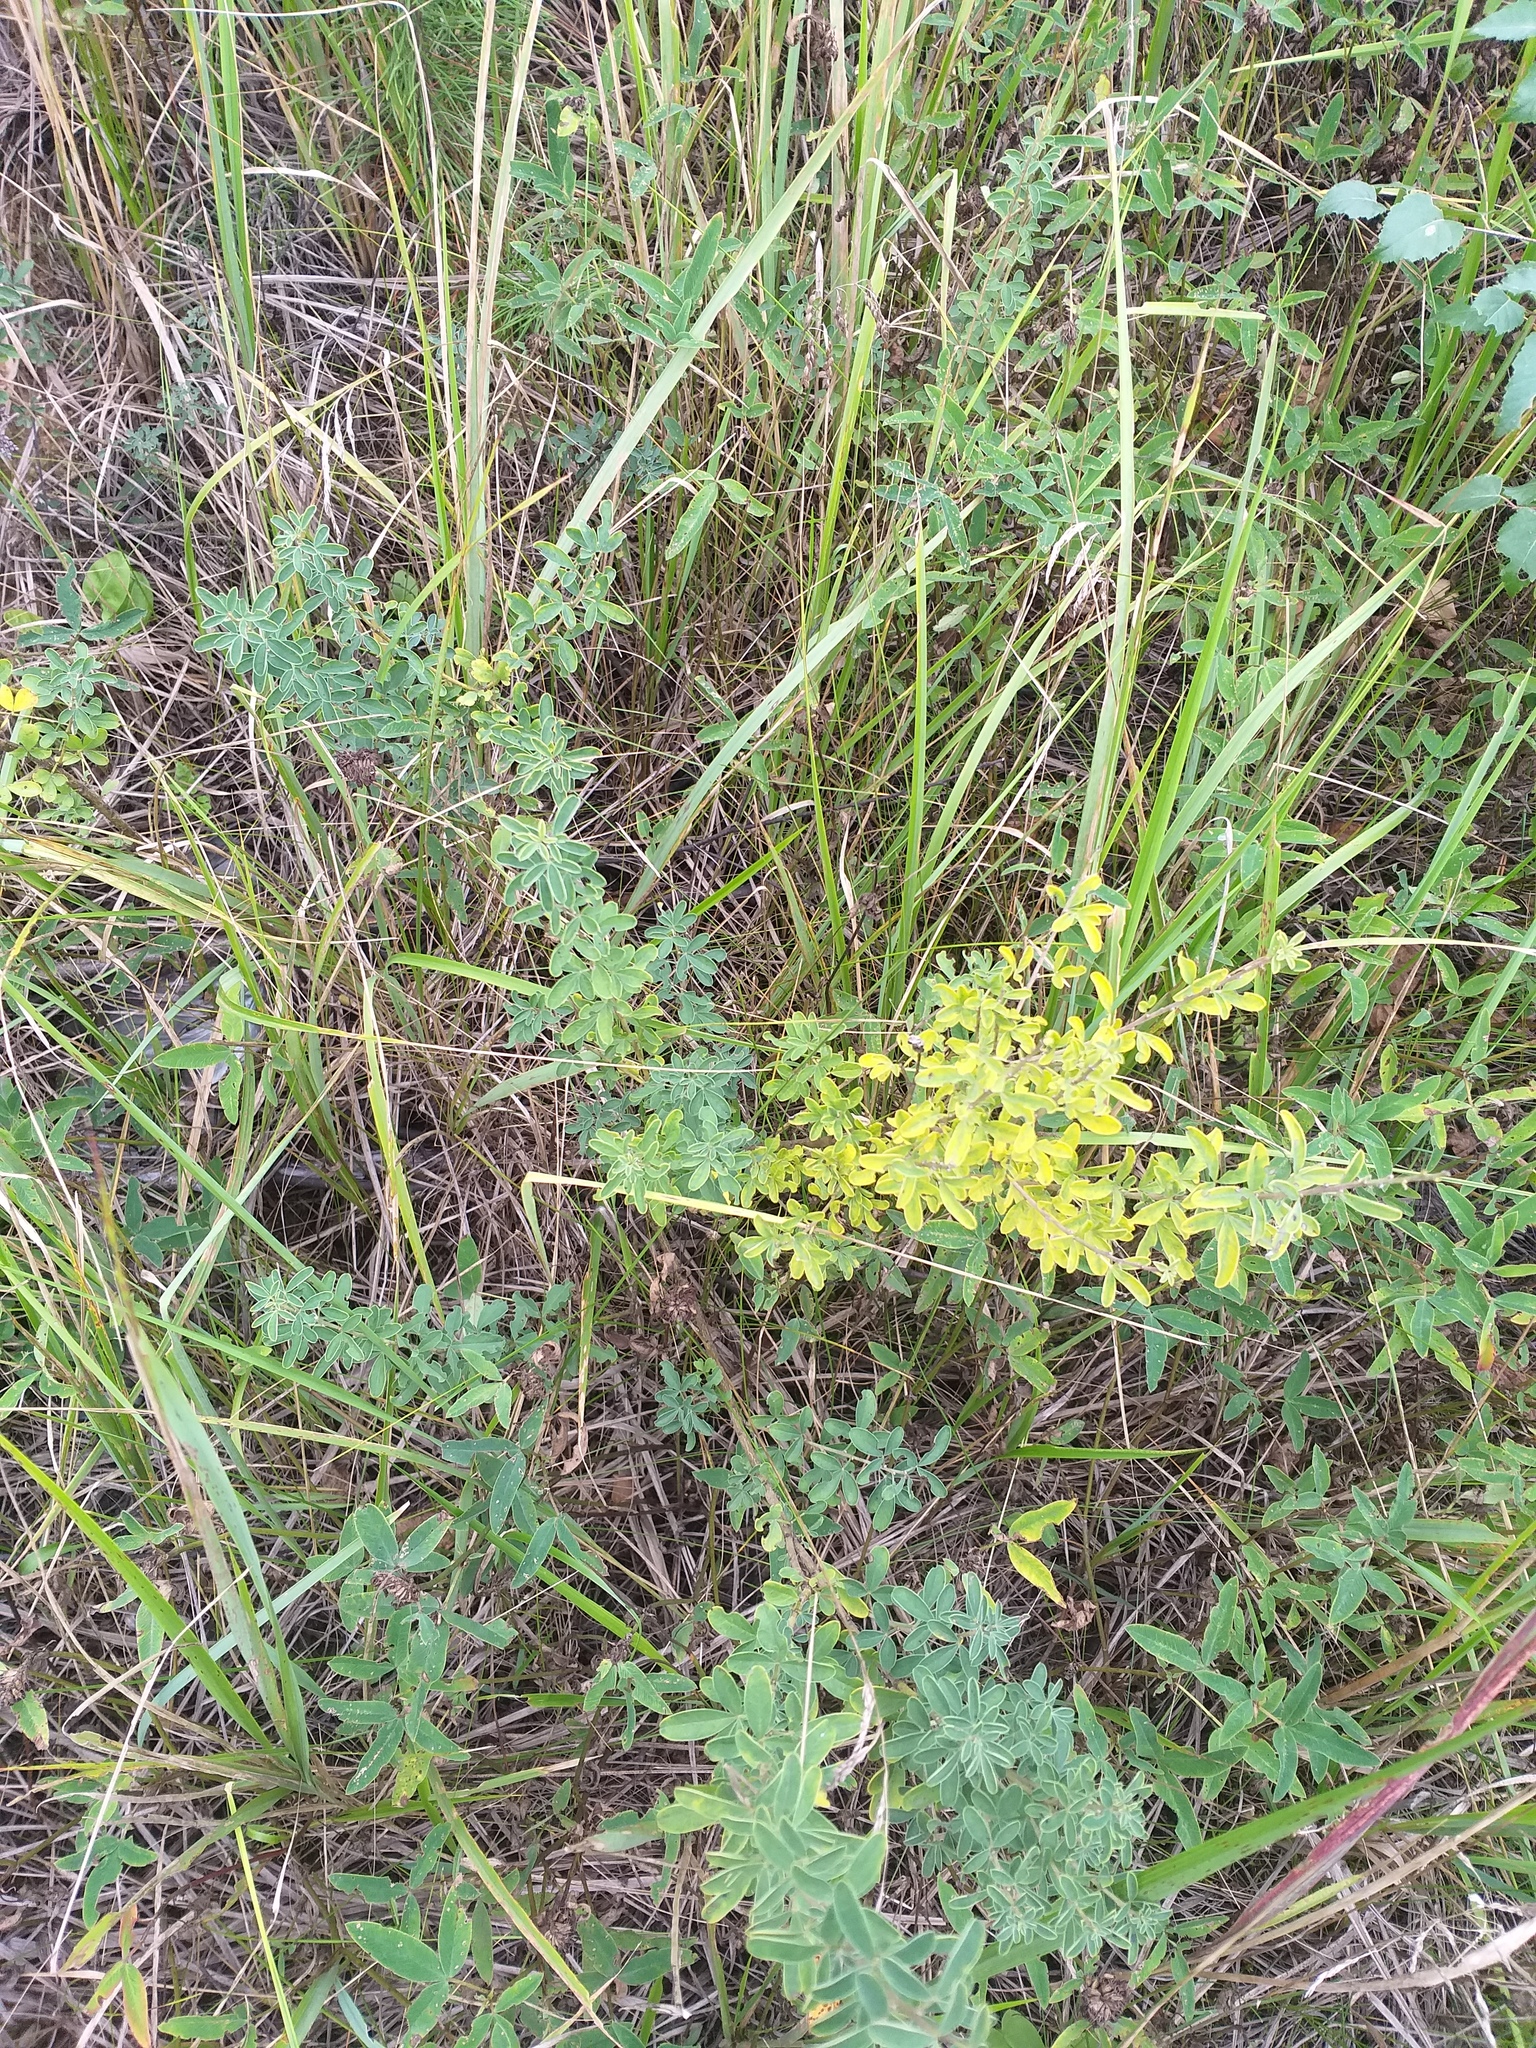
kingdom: Plantae
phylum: Tracheophyta
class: Magnoliopsida
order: Fabales
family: Fabaceae
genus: Chamaecytisus
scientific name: Chamaecytisus ruthenicus
